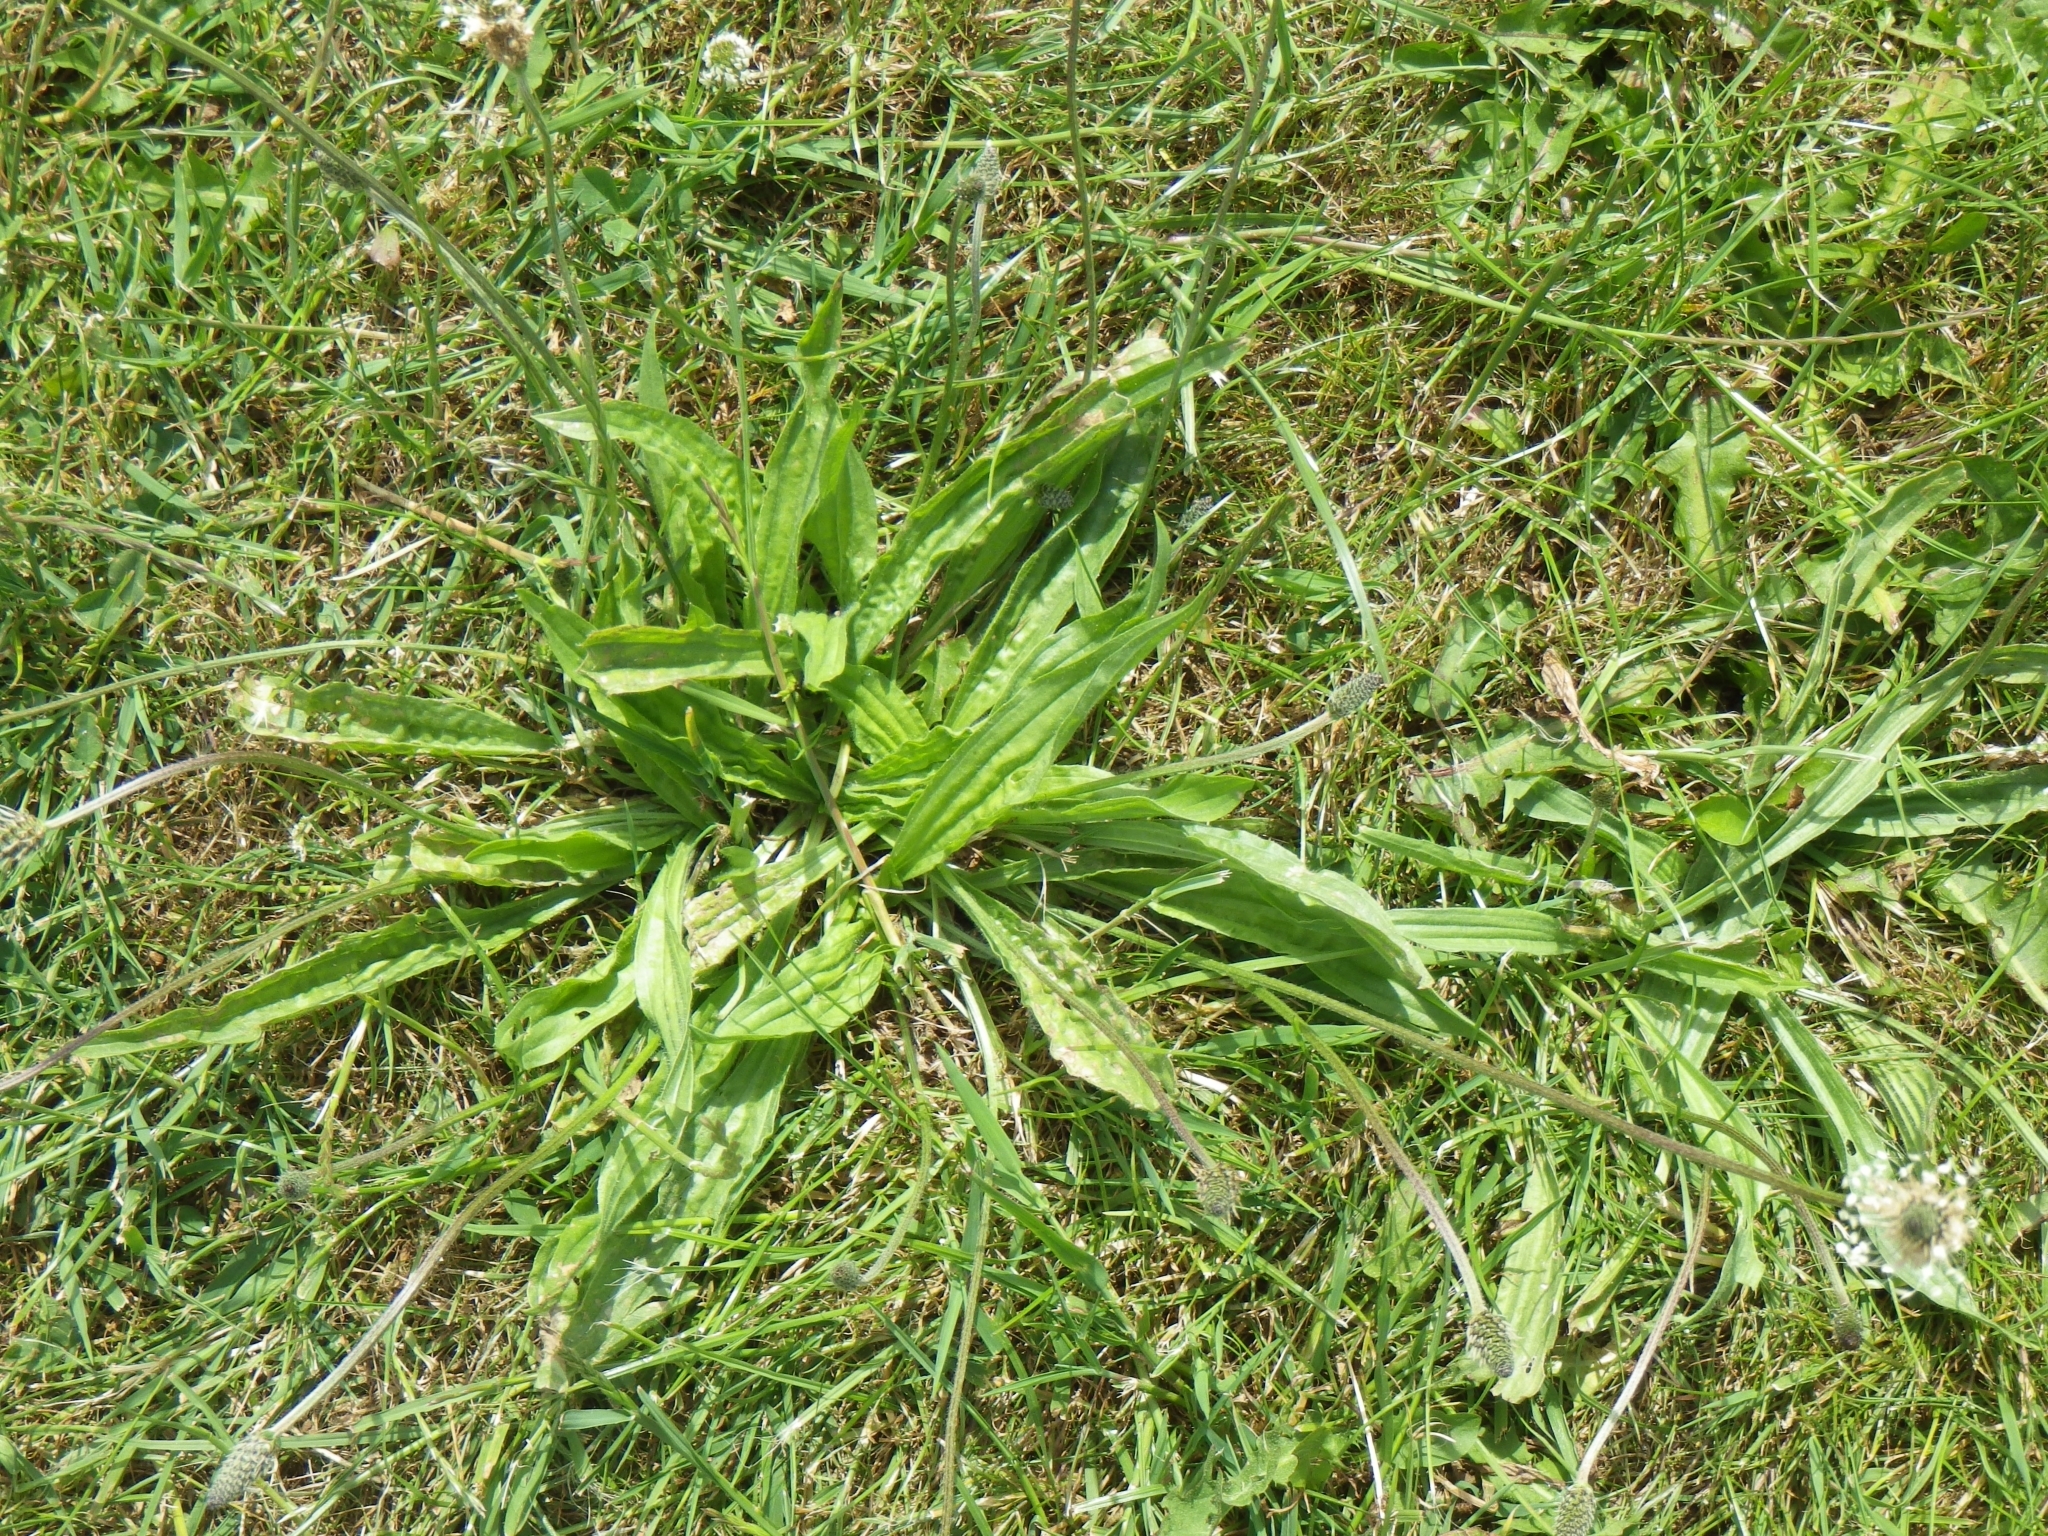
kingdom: Plantae
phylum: Tracheophyta
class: Magnoliopsida
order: Lamiales
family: Plantaginaceae
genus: Plantago
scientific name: Plantago lanceolata
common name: Ribwort plantain
